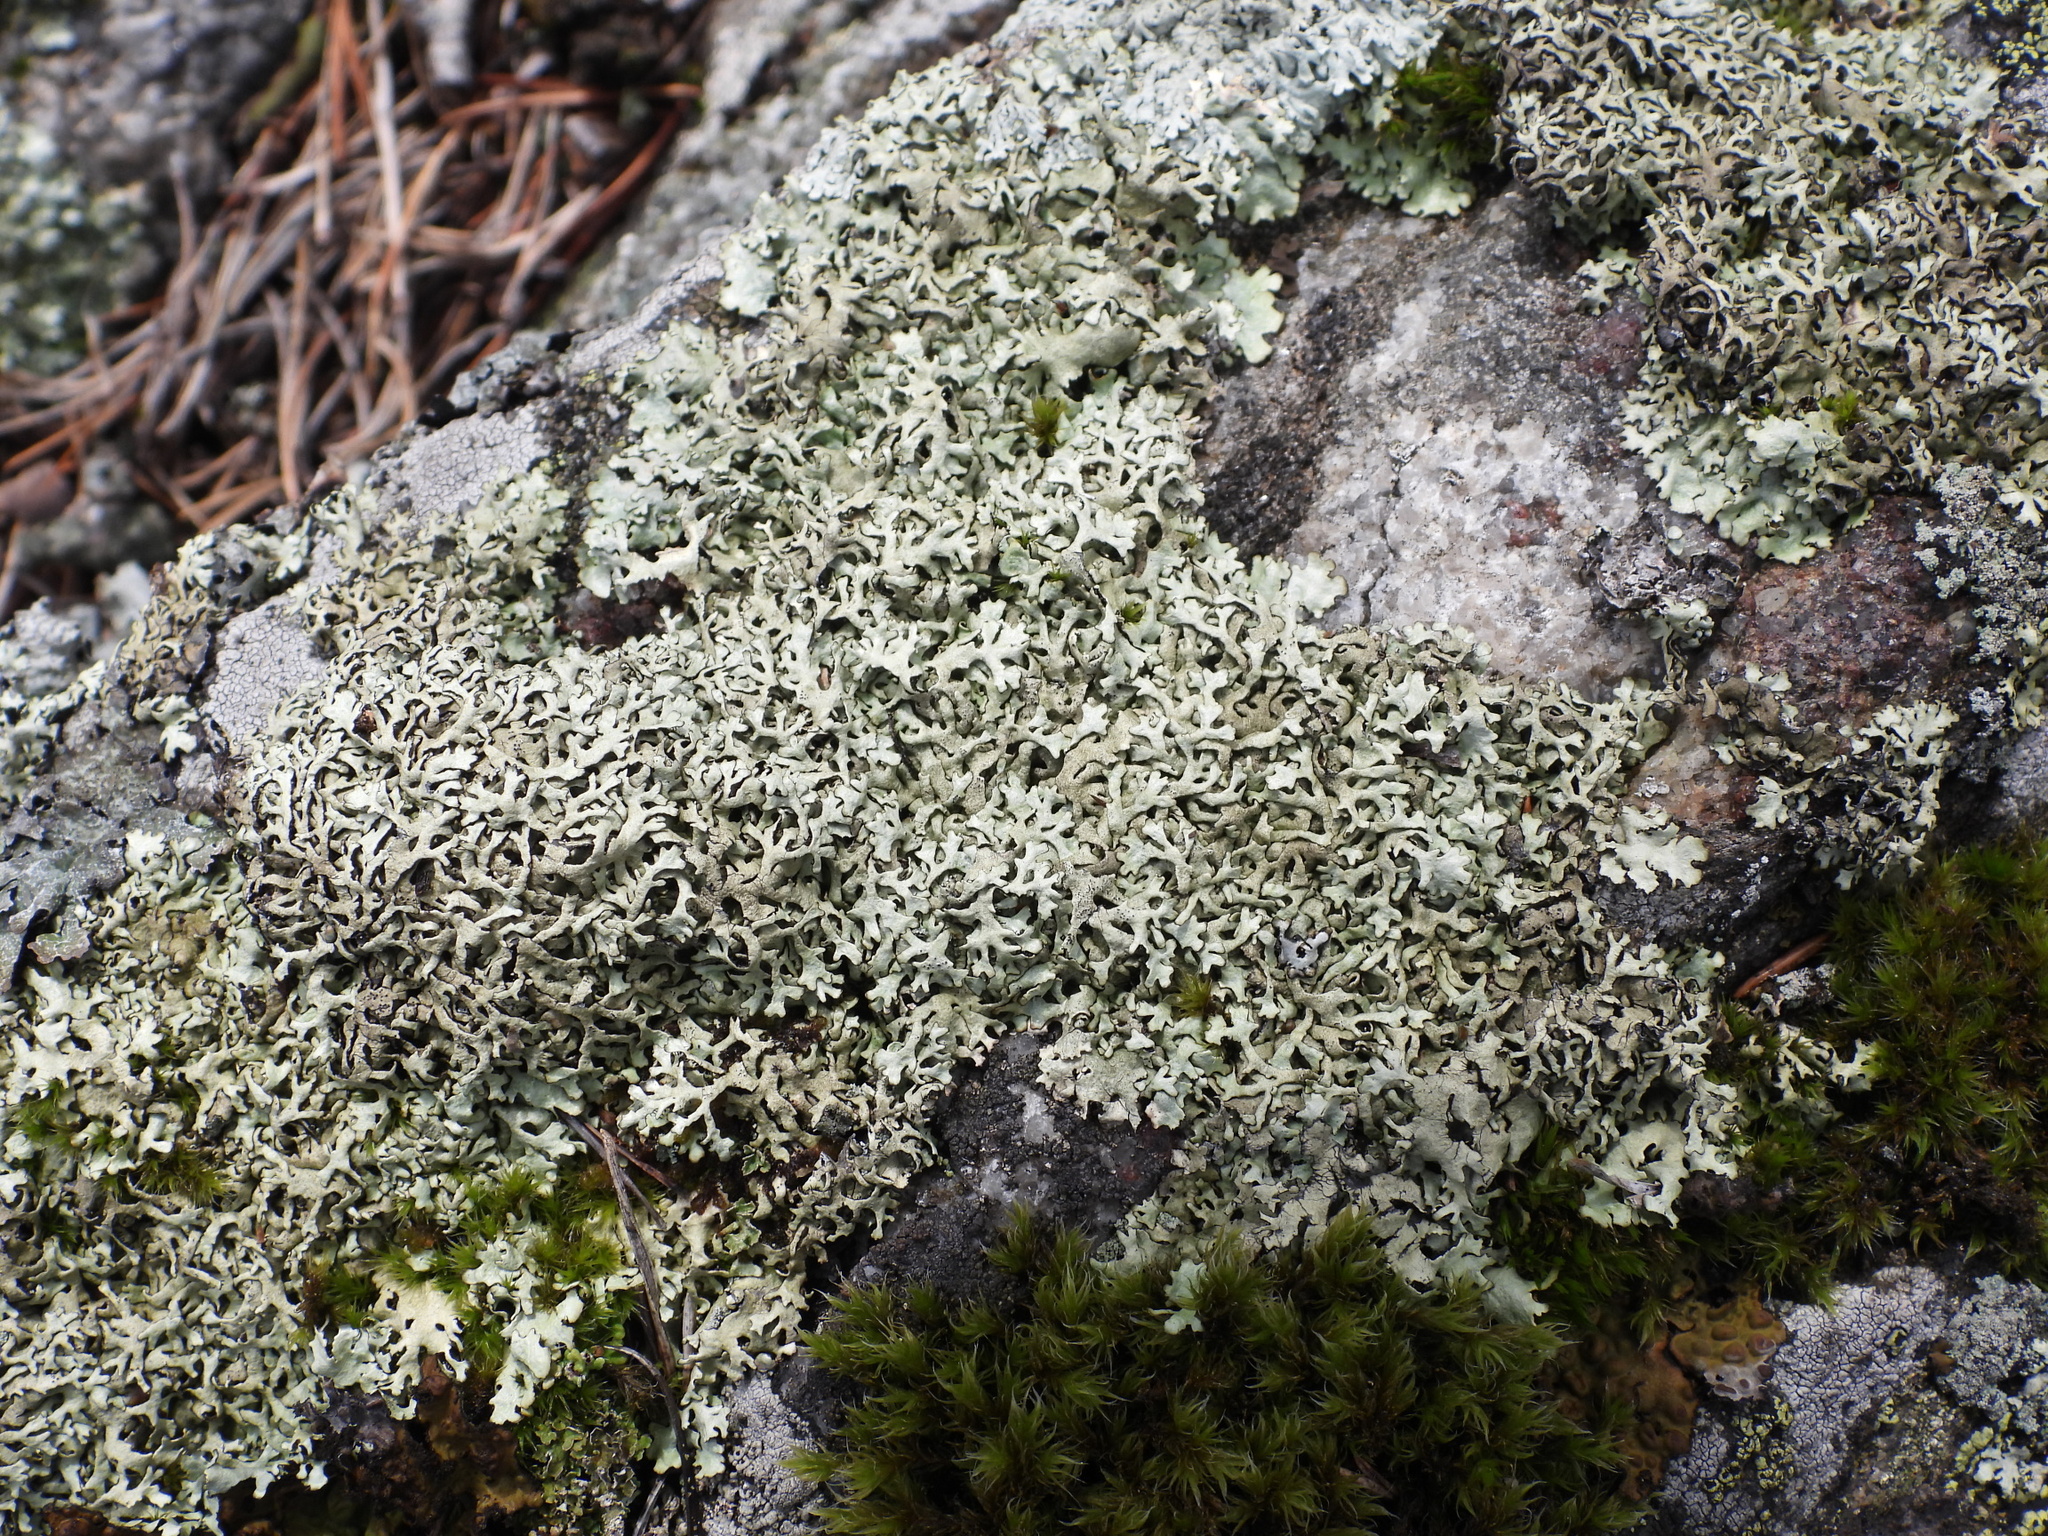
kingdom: Fungi
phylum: Ascomycota
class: Lecanoromycetes
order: Lecanorales
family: Parmeliaceae
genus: Xanthoparmelia
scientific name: Xanthoparmelia stenophylla
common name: Shingled rock shield
